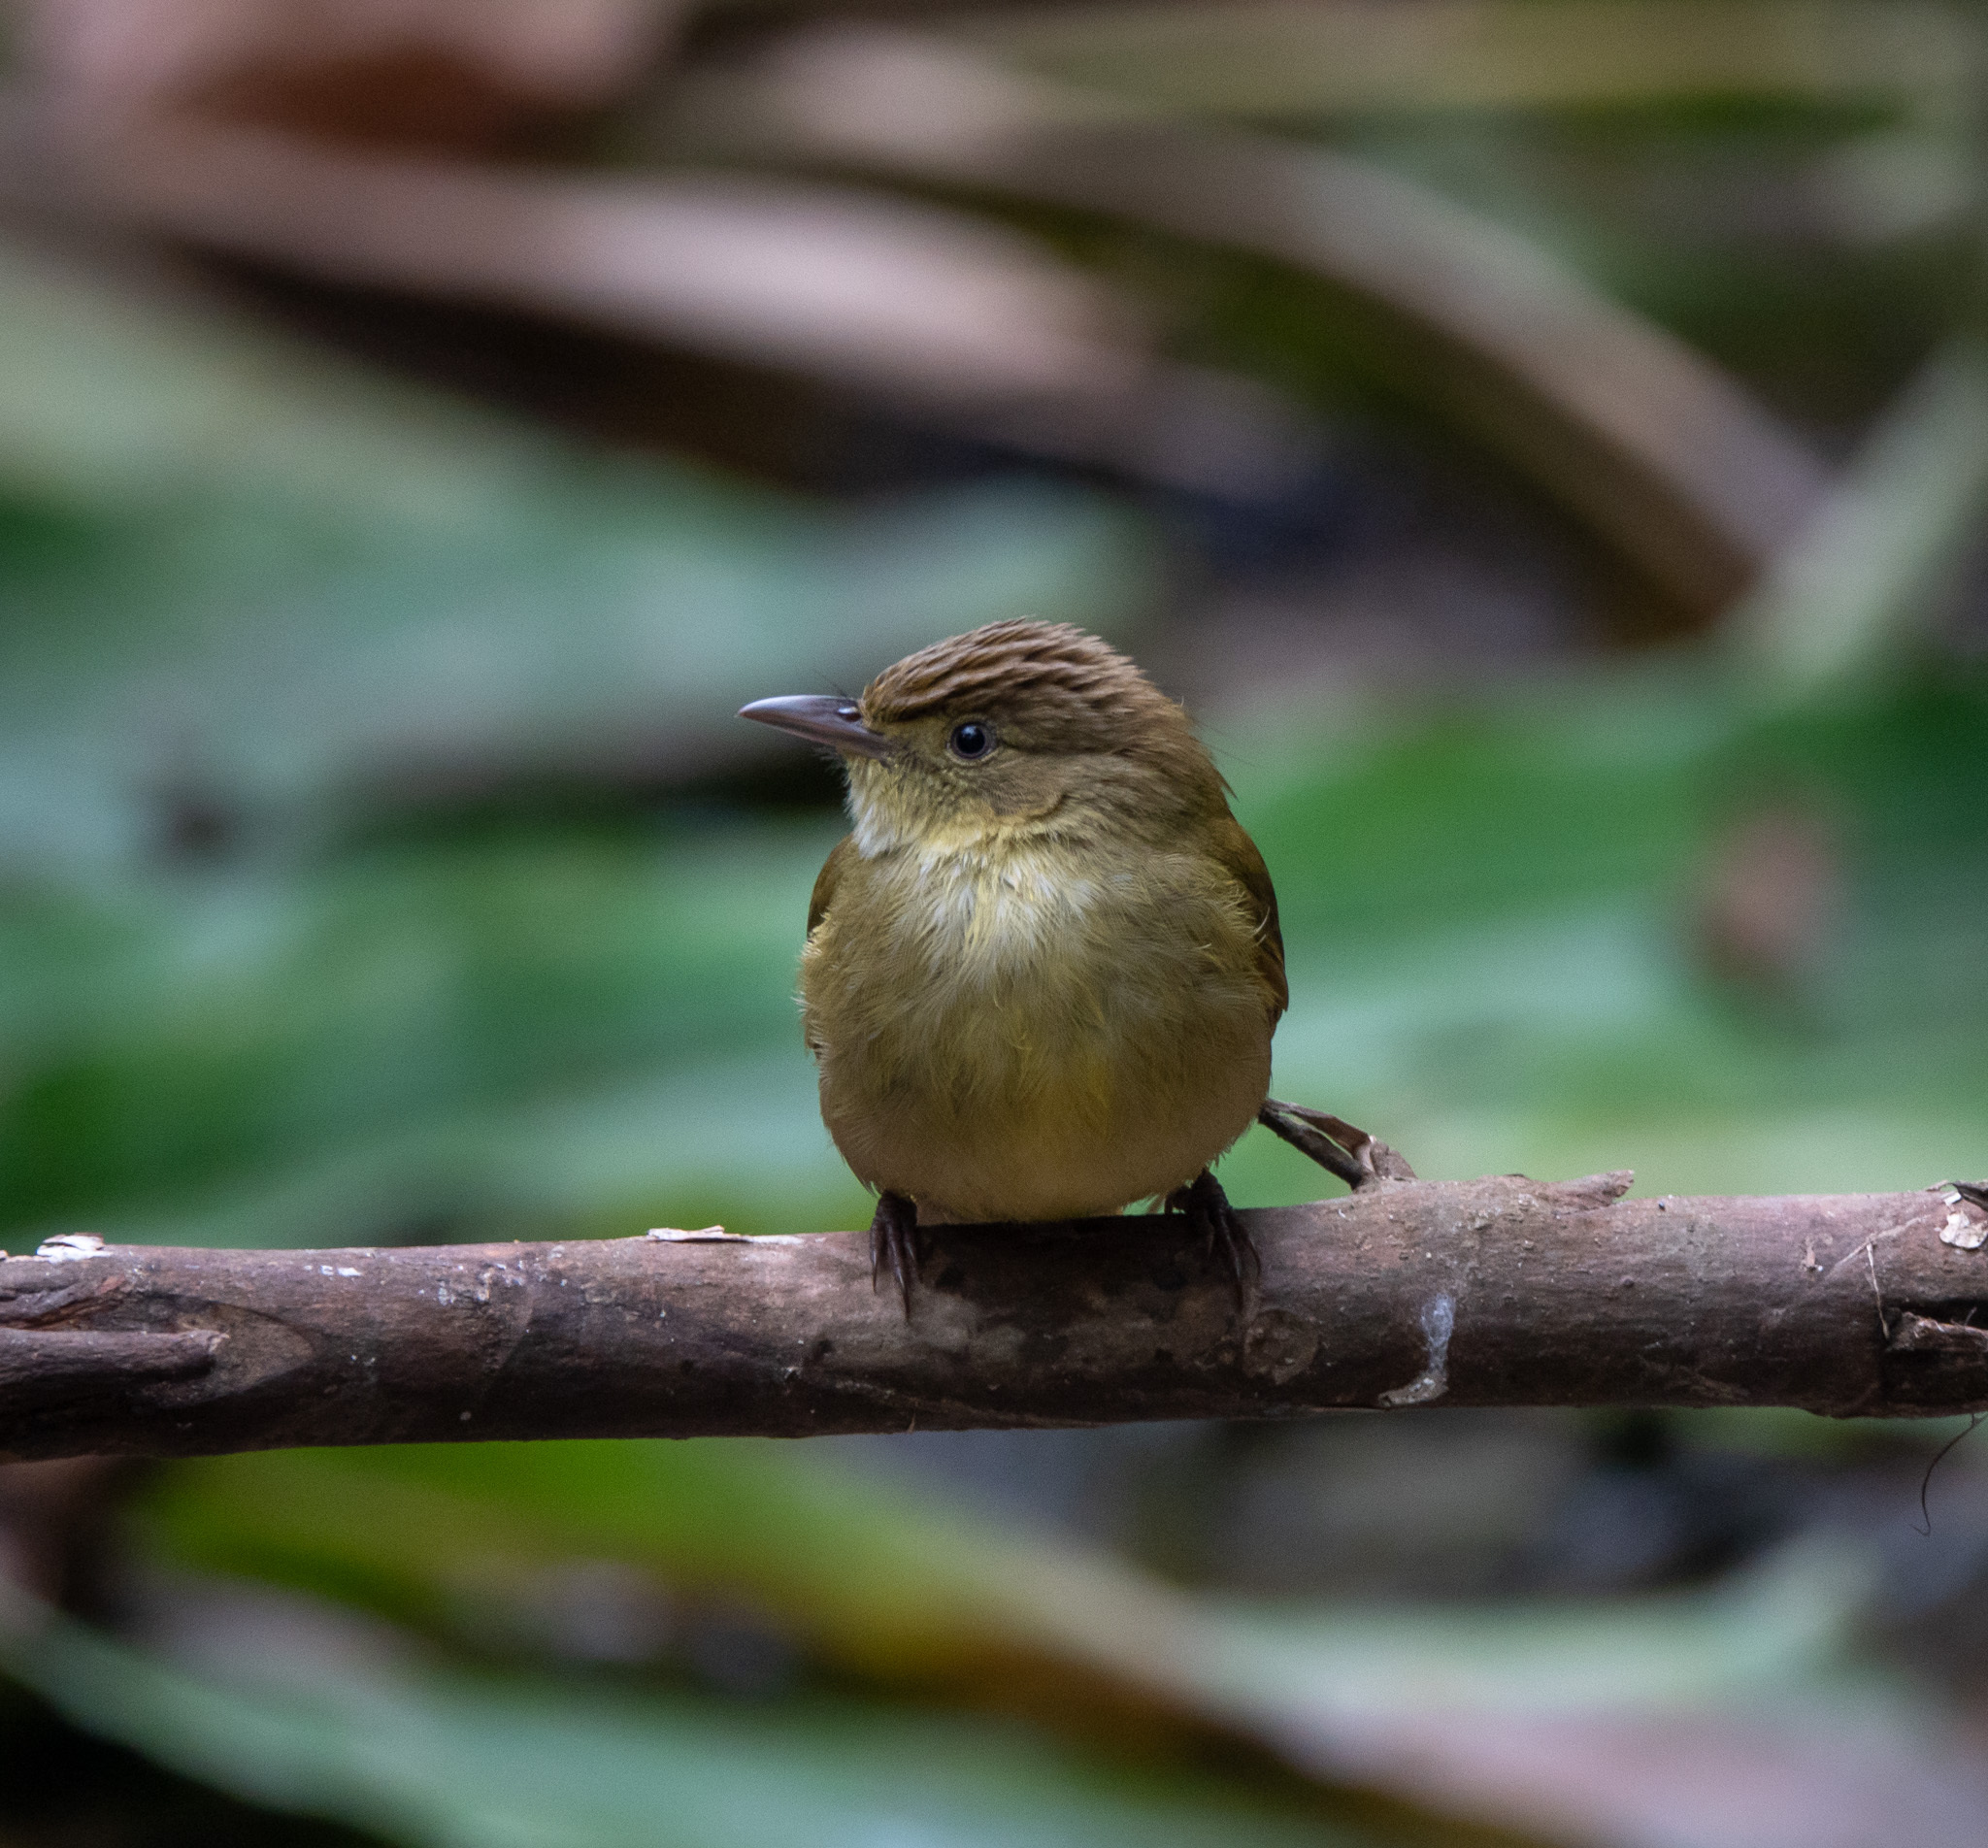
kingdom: Animalia
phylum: Chordata
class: Aves
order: Passeriformes
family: Pycnonotidae
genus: Iole
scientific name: Iole virescens
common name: Olive bulbul
